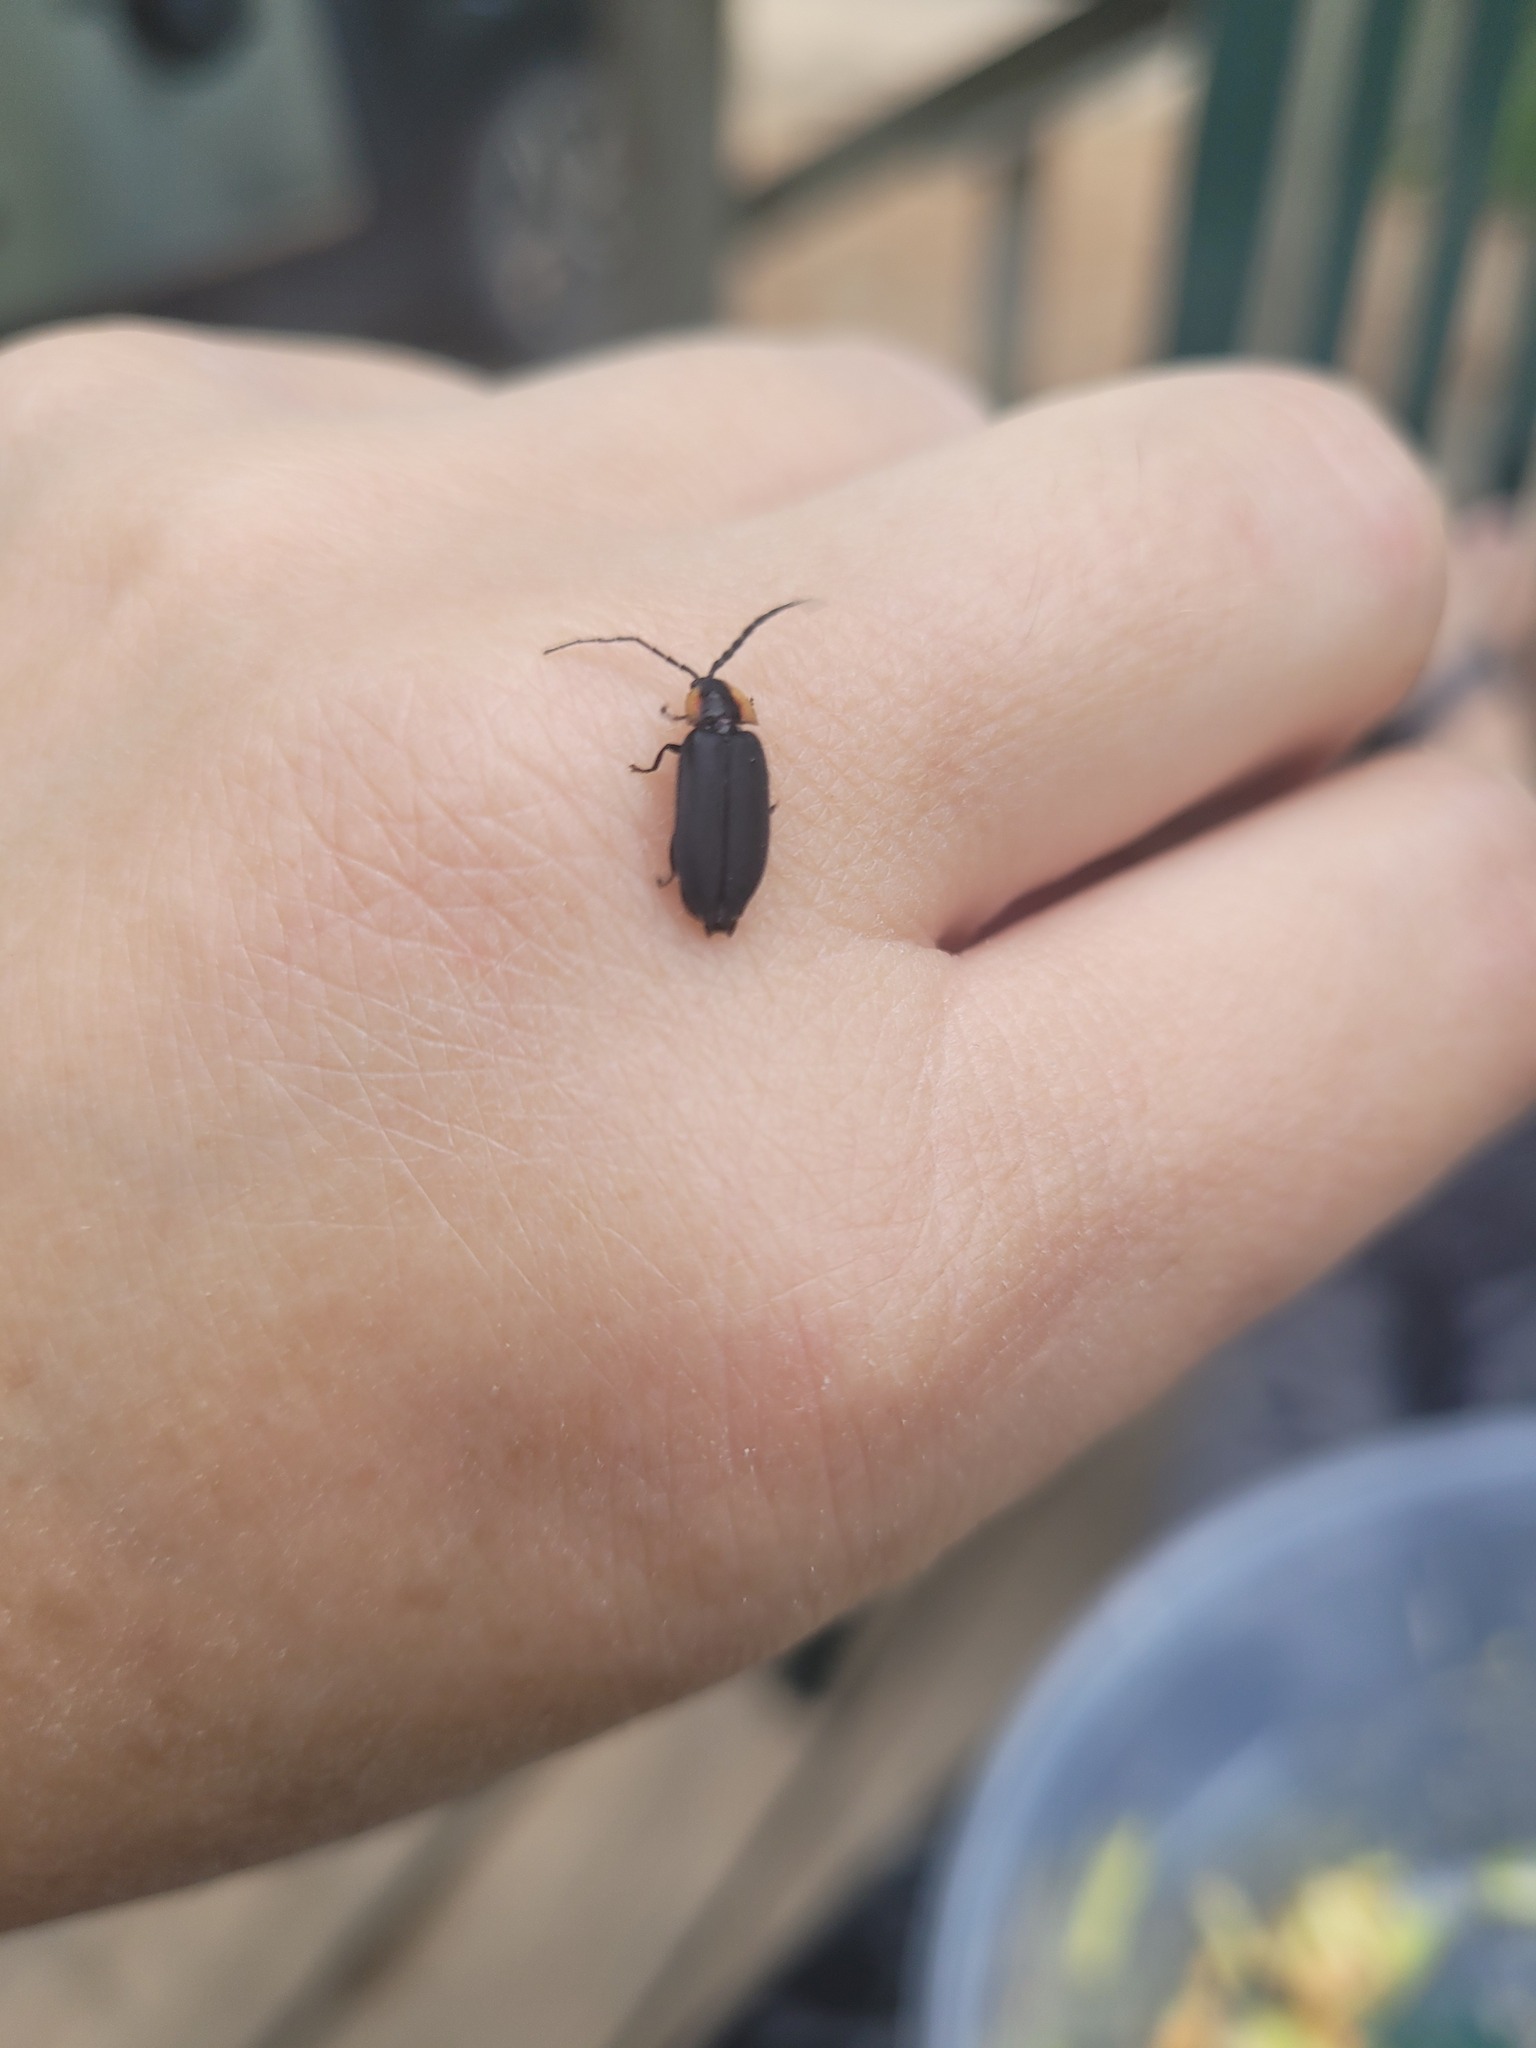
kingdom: Animalia
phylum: Arthropoda
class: Insecta
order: Coleoptera
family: Lampyridae
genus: Lucidota
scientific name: Lucidota atra
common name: Black firefly
